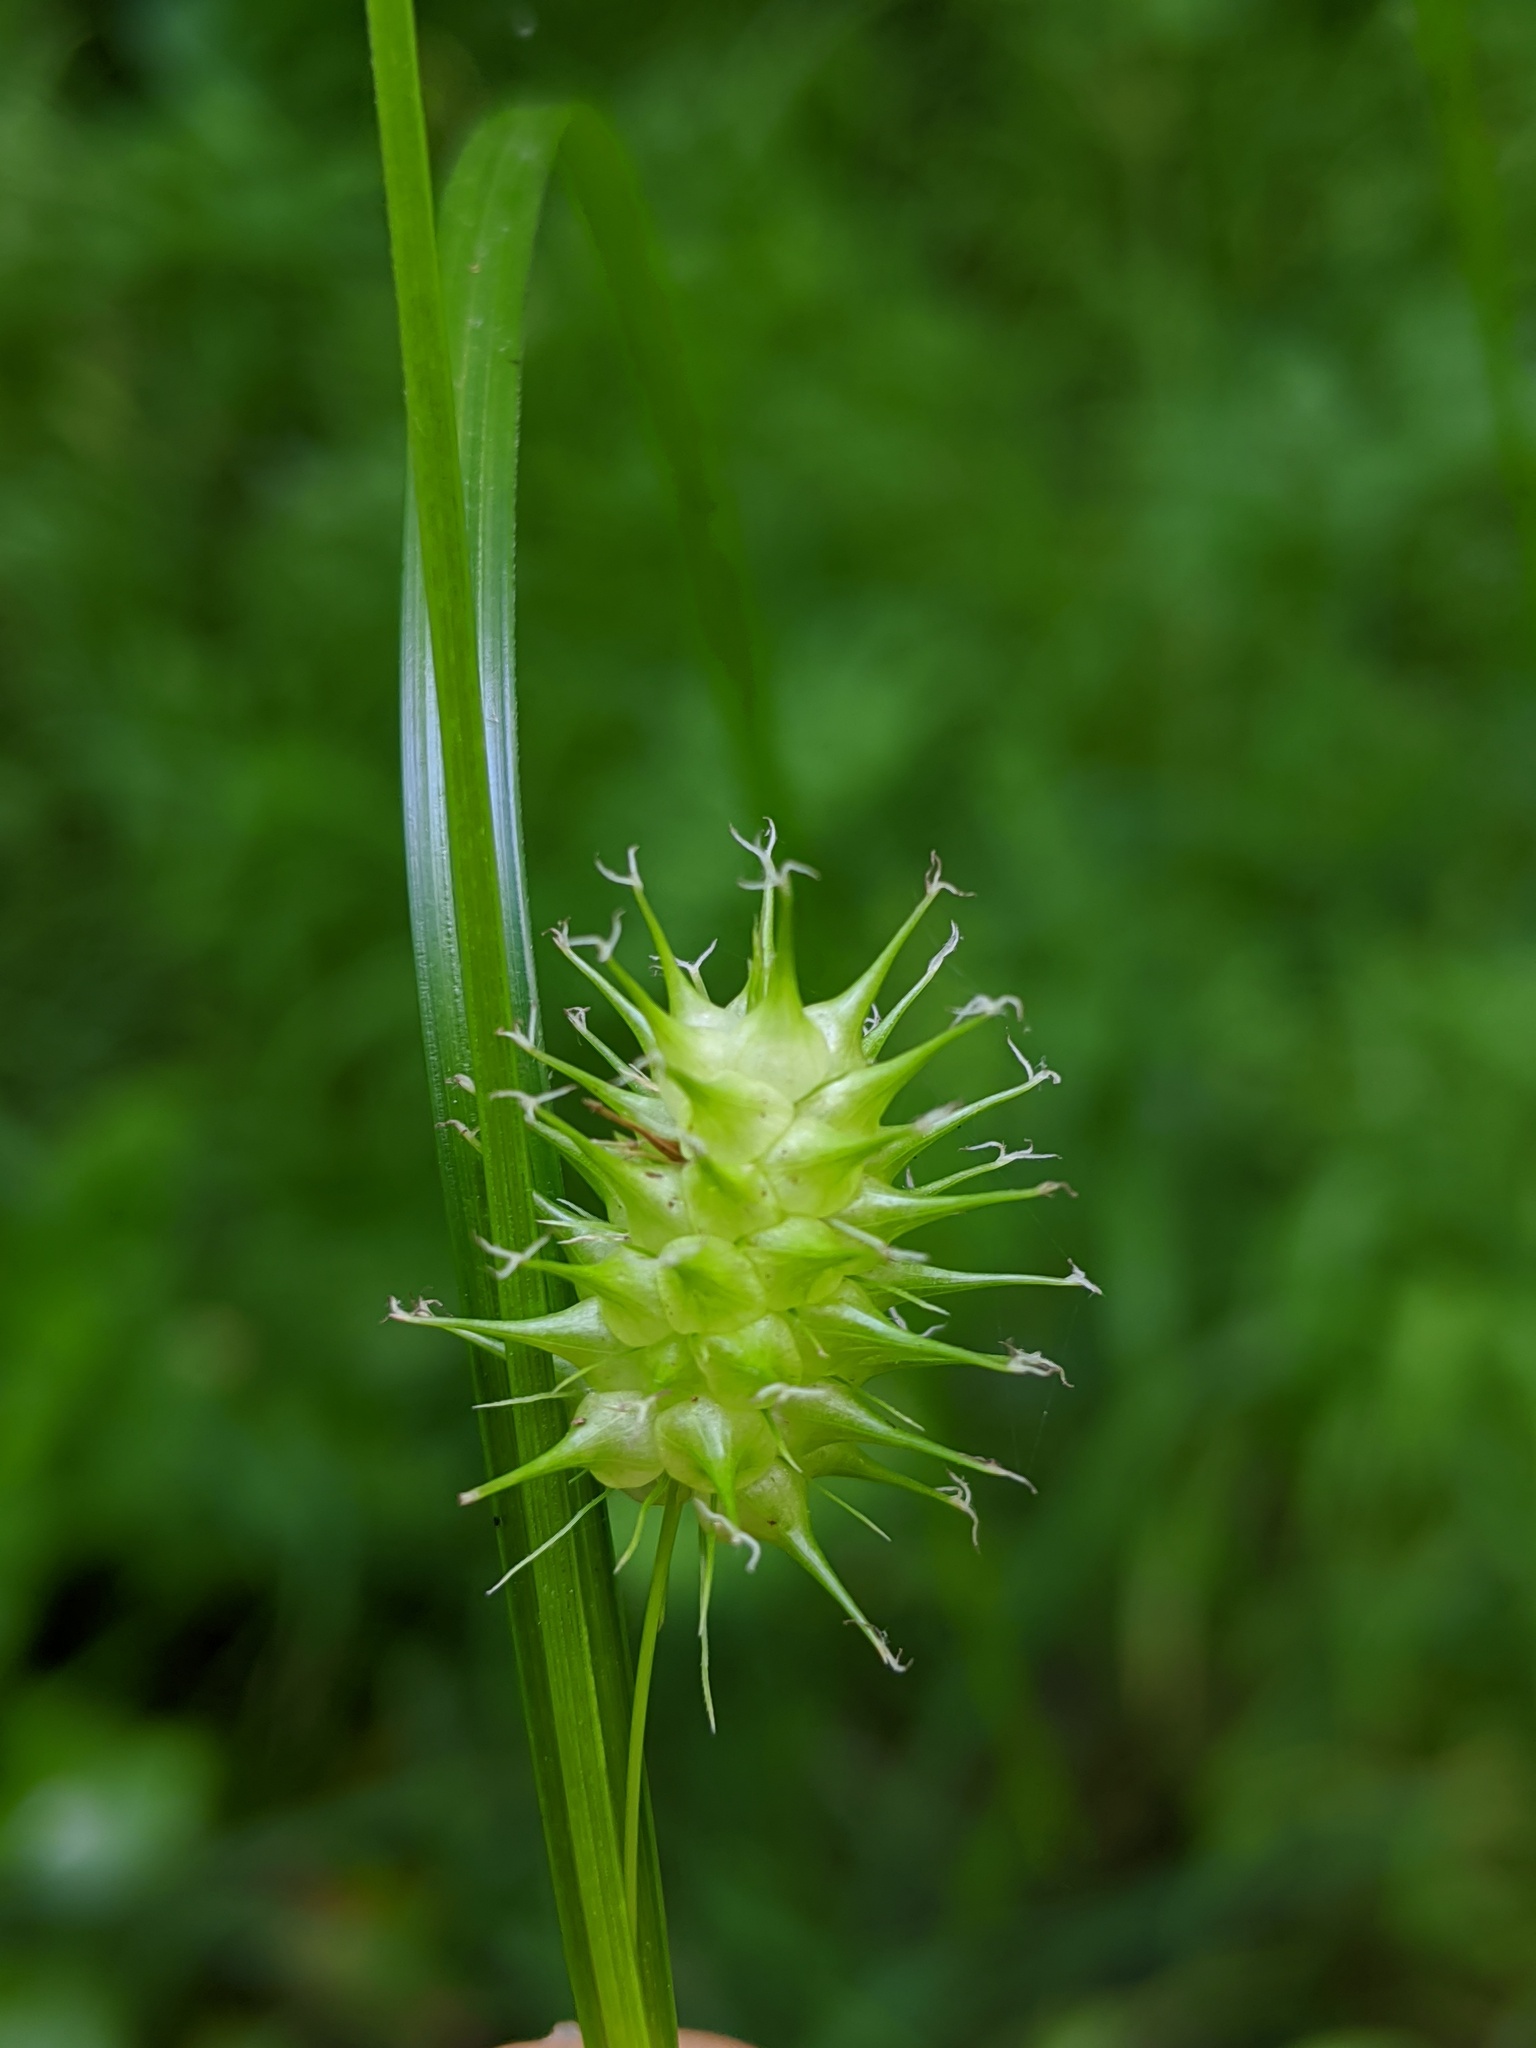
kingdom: Plantae
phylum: Tracheophyta
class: Liliopsida
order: Poales
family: Cyperaceae
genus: Carex
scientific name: Carex lurida
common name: Sallow sedge
